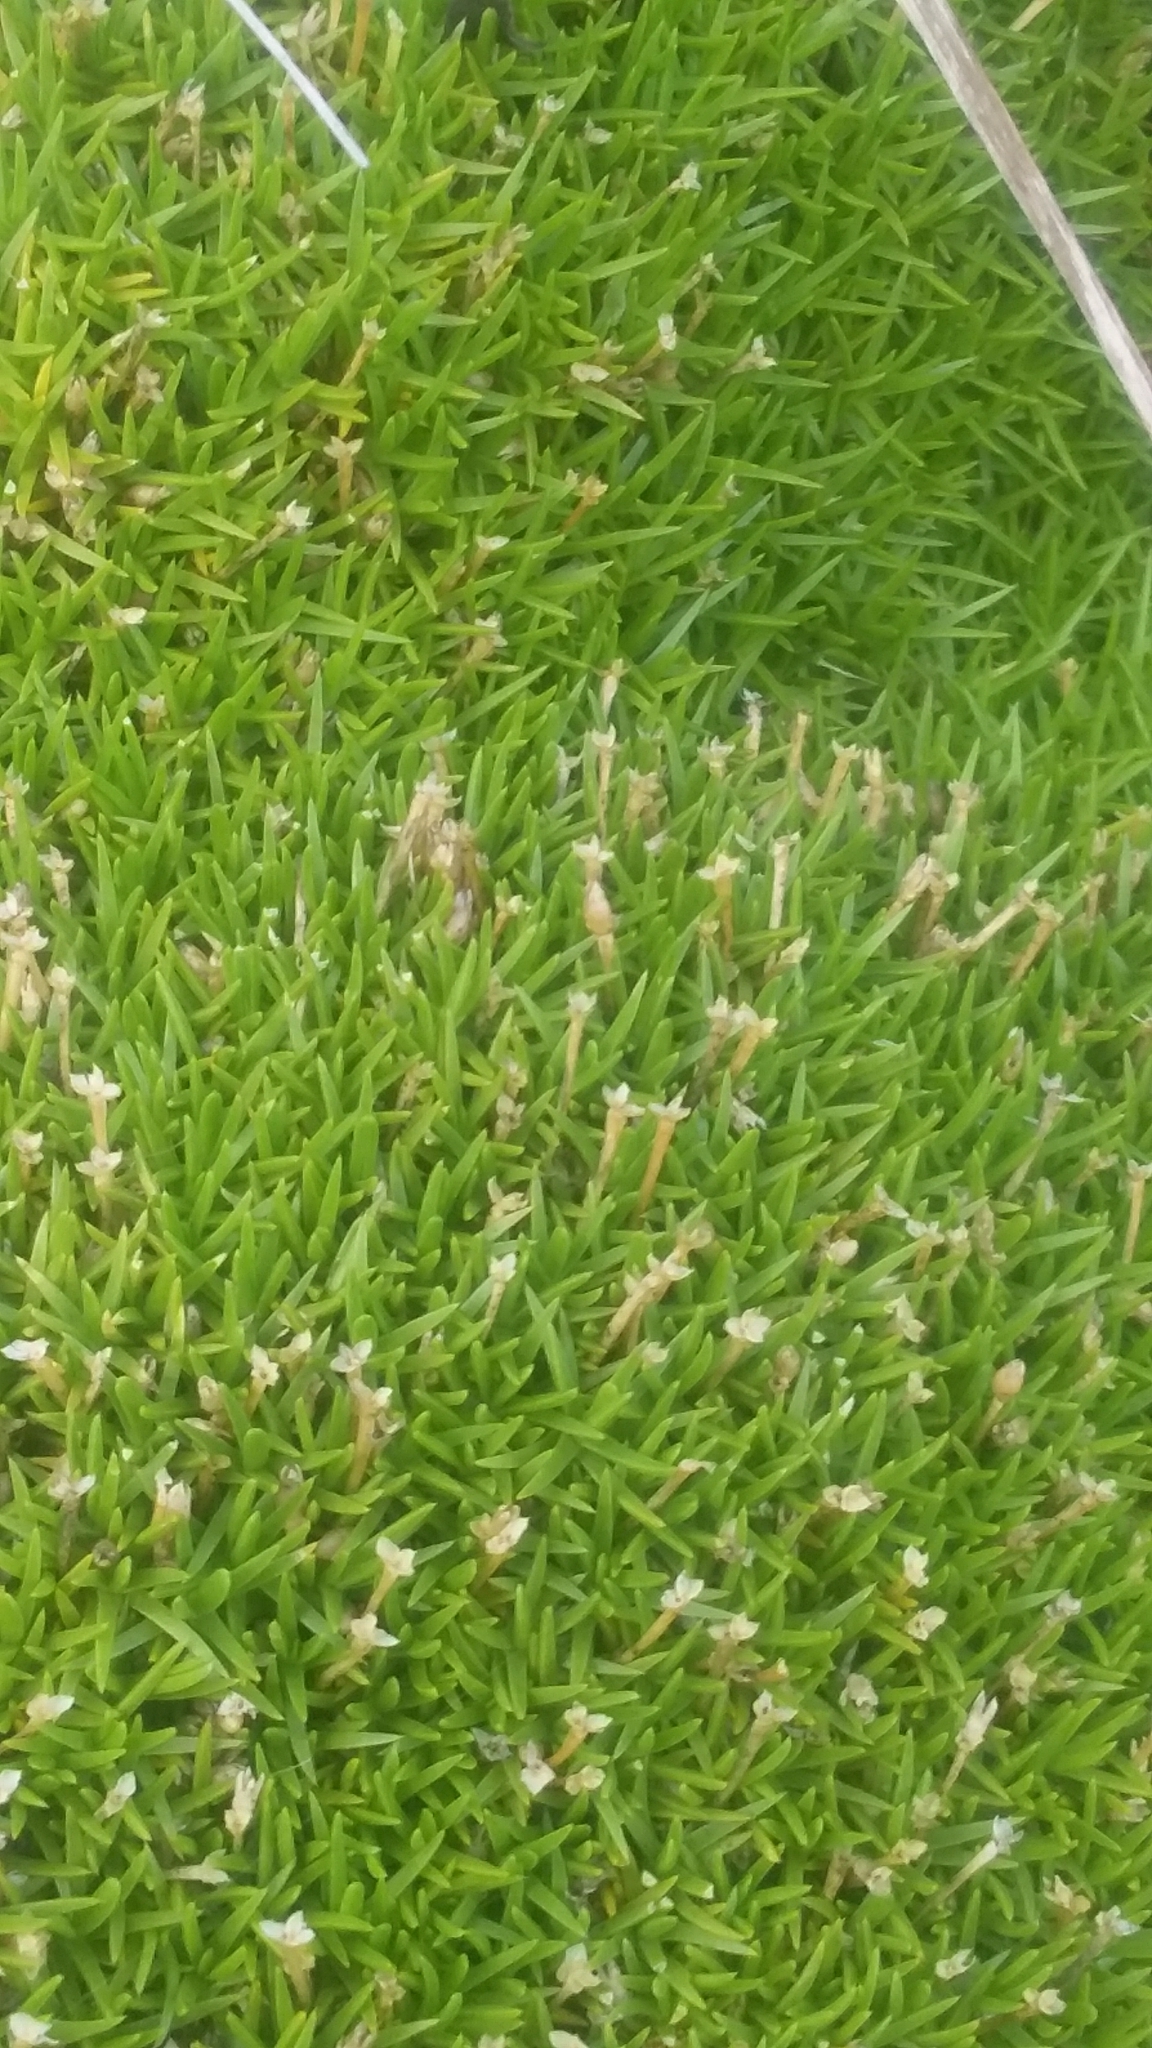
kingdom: Plantae
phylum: Tracheophyta
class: Magnoliopsida
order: Caryophyllales
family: Caryophyllaceae
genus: Scleranthus
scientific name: Scleranthus biflorus
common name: Two-flower knawel
